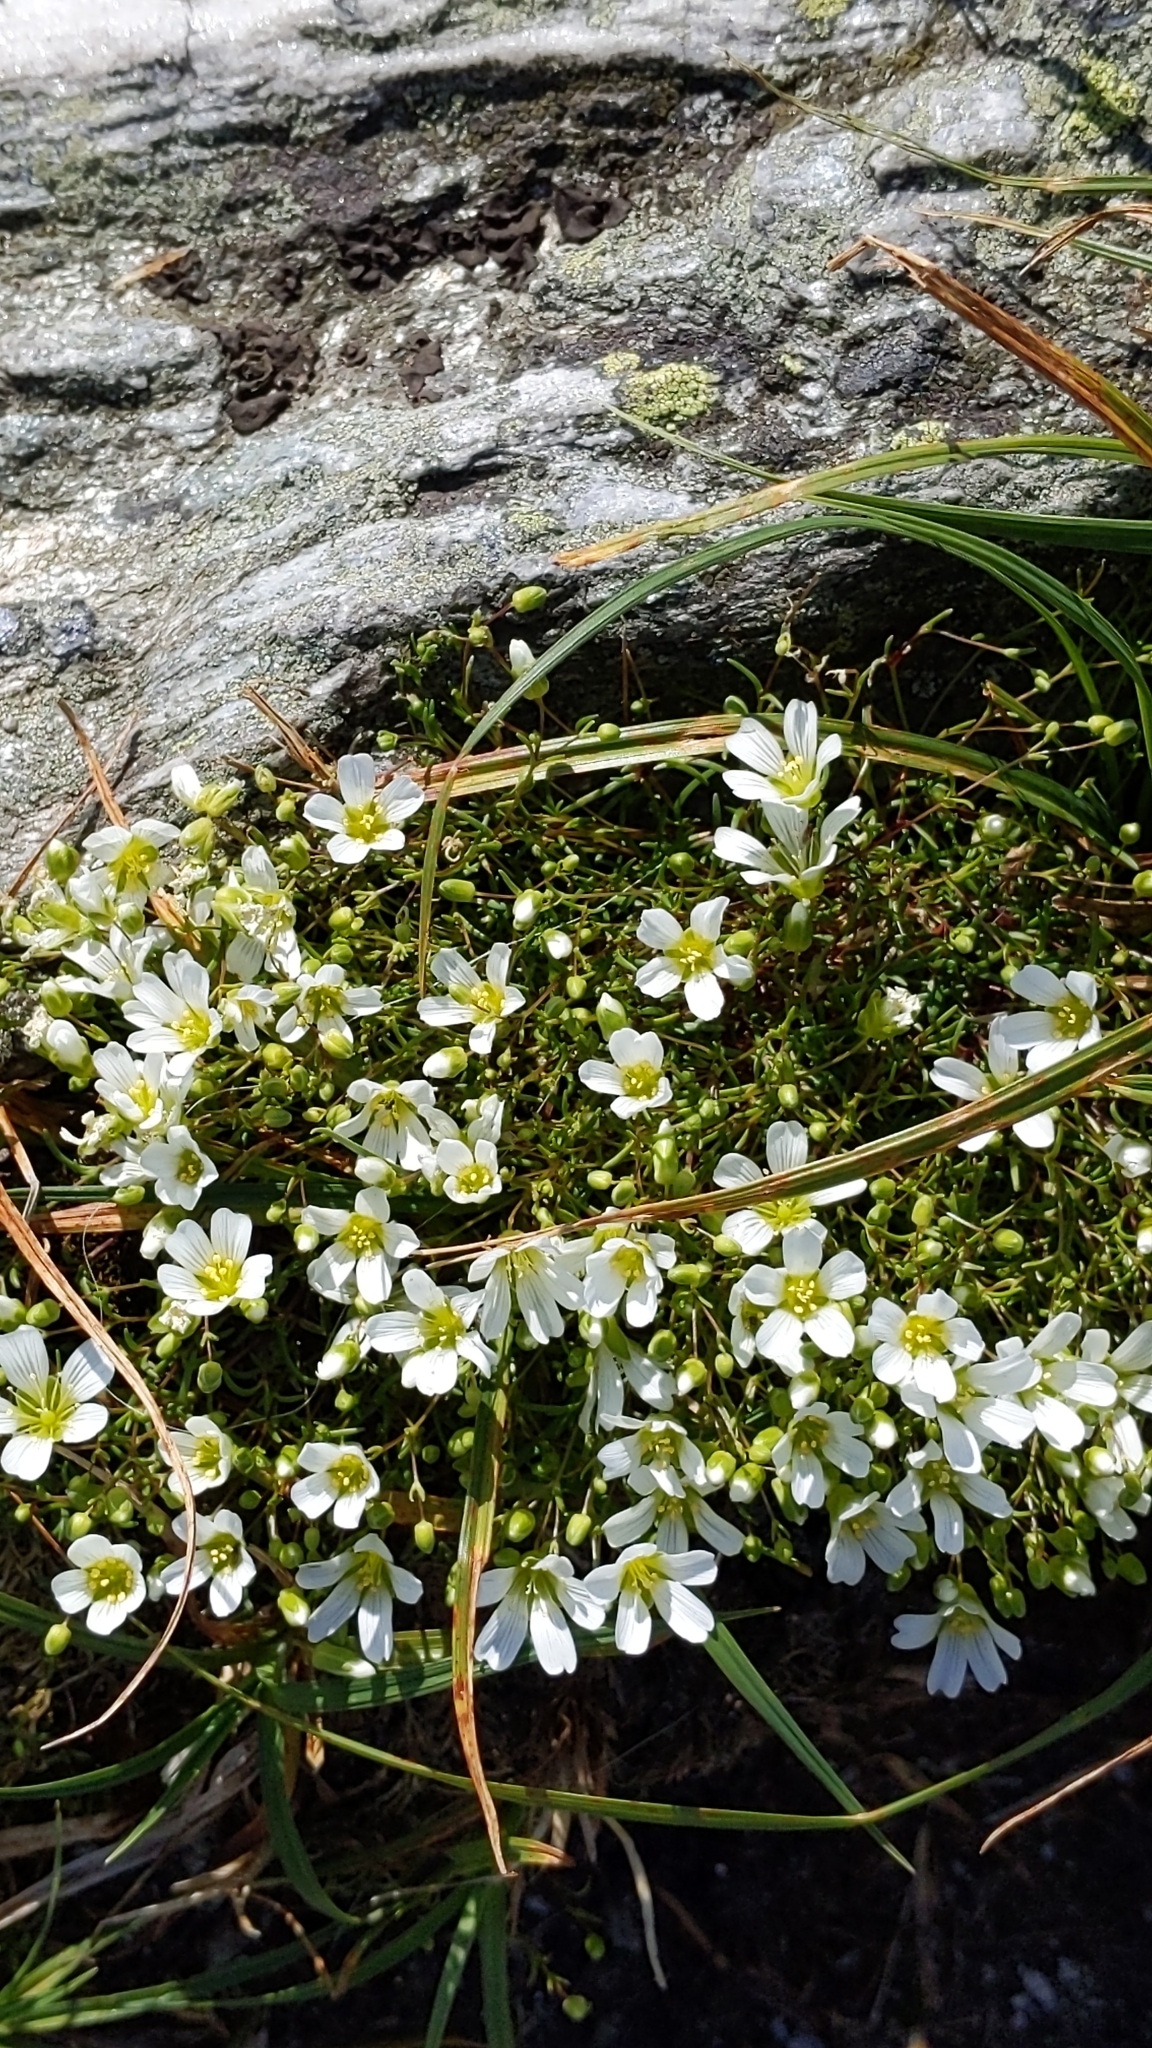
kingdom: Plantae
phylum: Tracheophyta
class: Magnoliopsida
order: Caryophyllales
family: Caryophyllaceae
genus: Geocarpon
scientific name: Geocarpon groenlandicum
